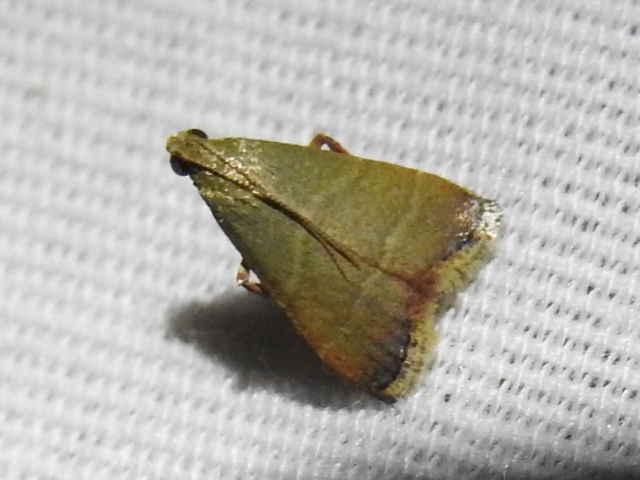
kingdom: Animalia
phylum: Arthropoda
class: Insecta
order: Lepidoptera
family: Pyralidae
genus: Arta
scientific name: Arta olivalis
